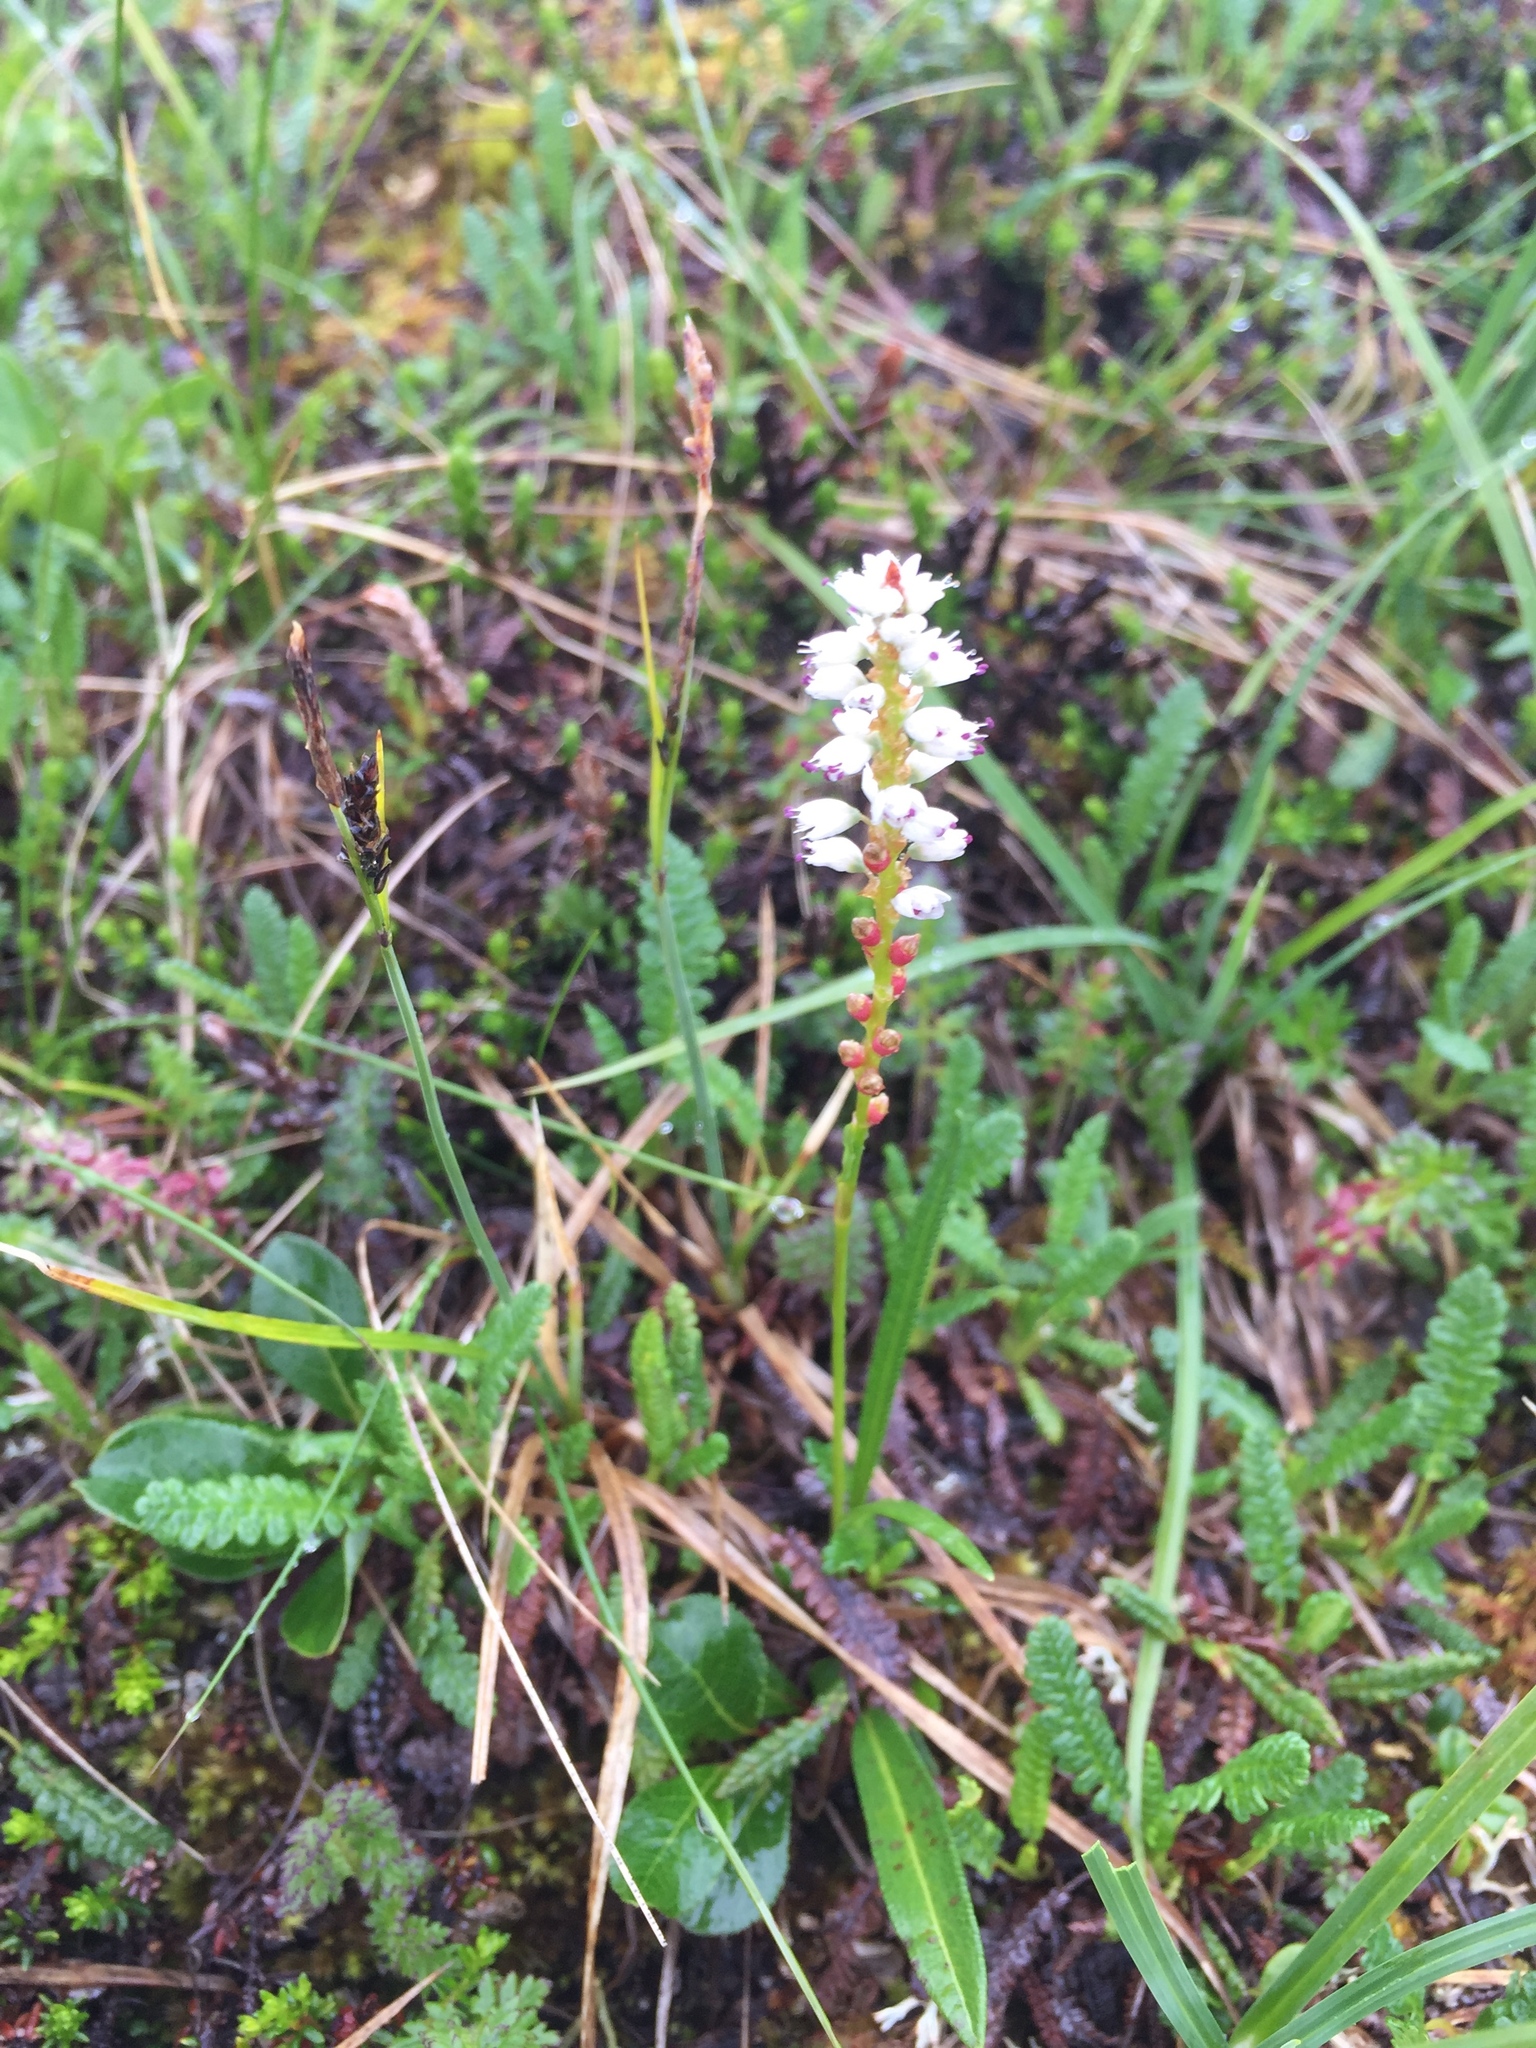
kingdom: Plantae
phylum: Tracheophyta
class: Magnoliopsida
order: Caryophyllales
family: Polygonaceae
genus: Bistorta
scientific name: Bistorta vivipara
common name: Alpine bistort
